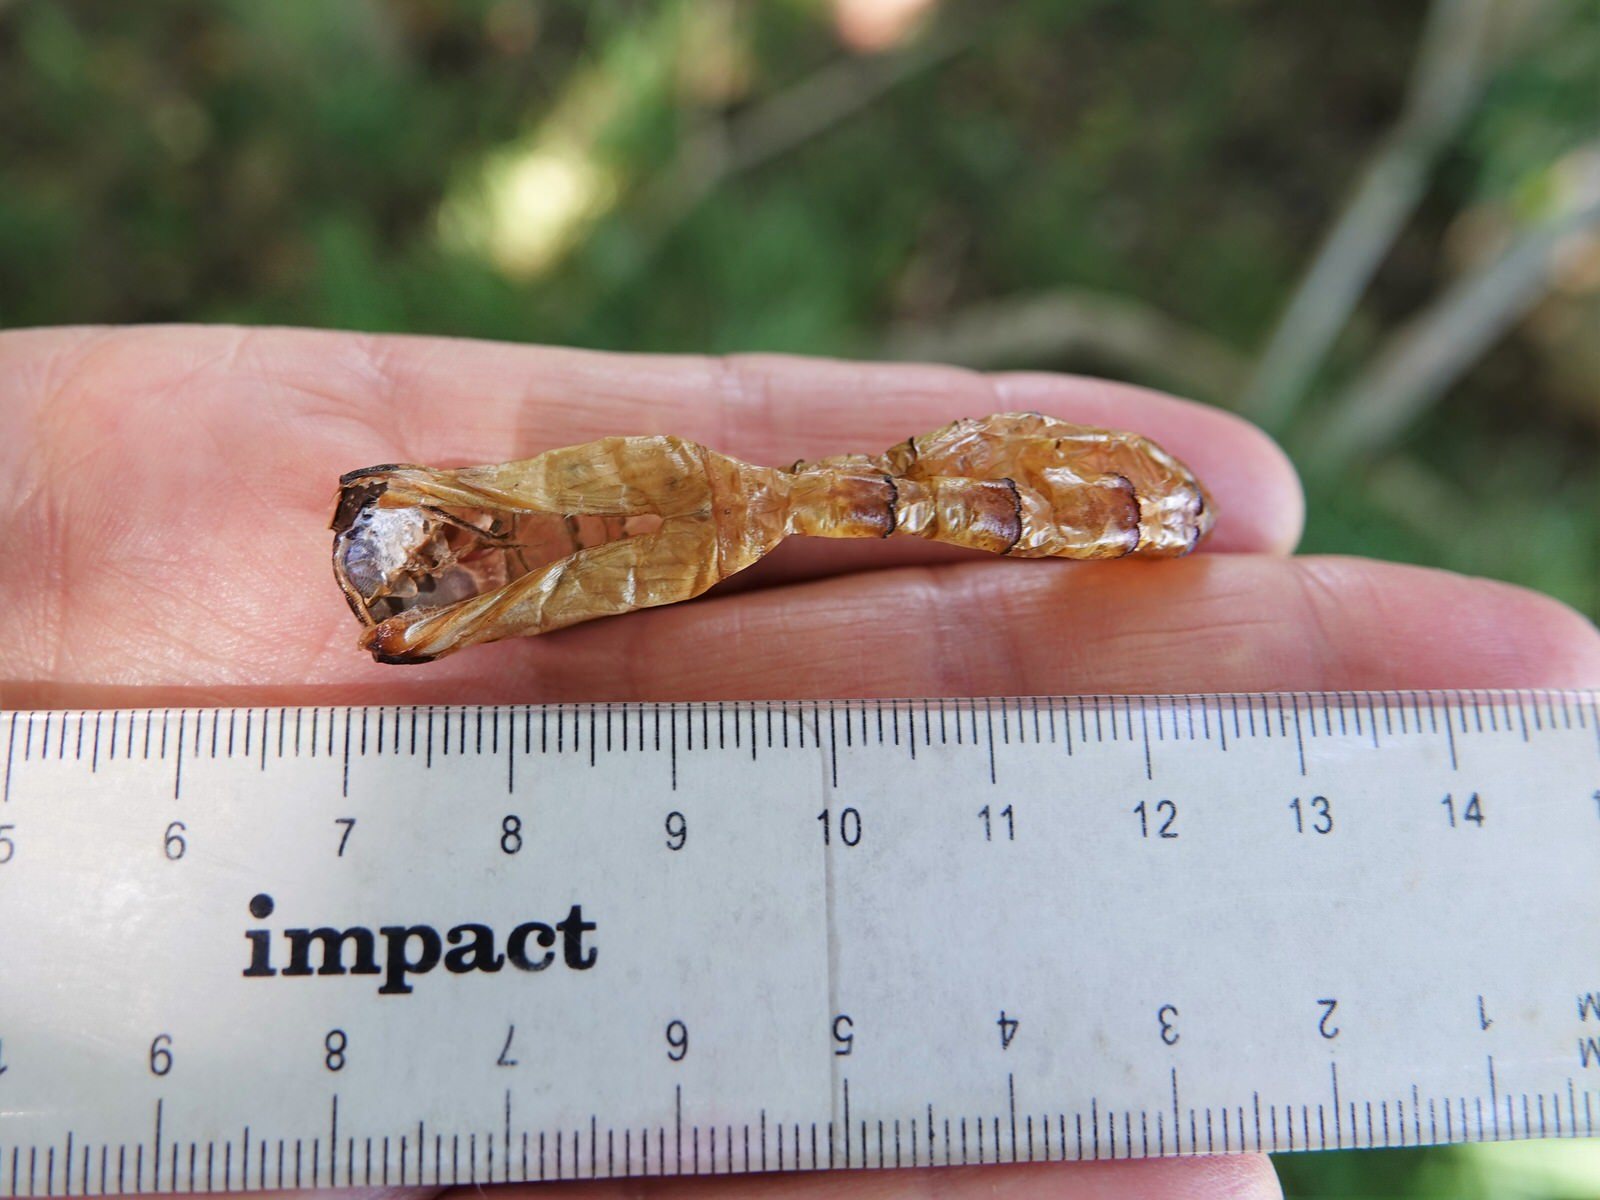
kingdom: Animalia
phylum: Arthropoda
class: Insecta
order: Lepidoptera
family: Hepialidae
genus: Aenetus
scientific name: Aenetus virescens
